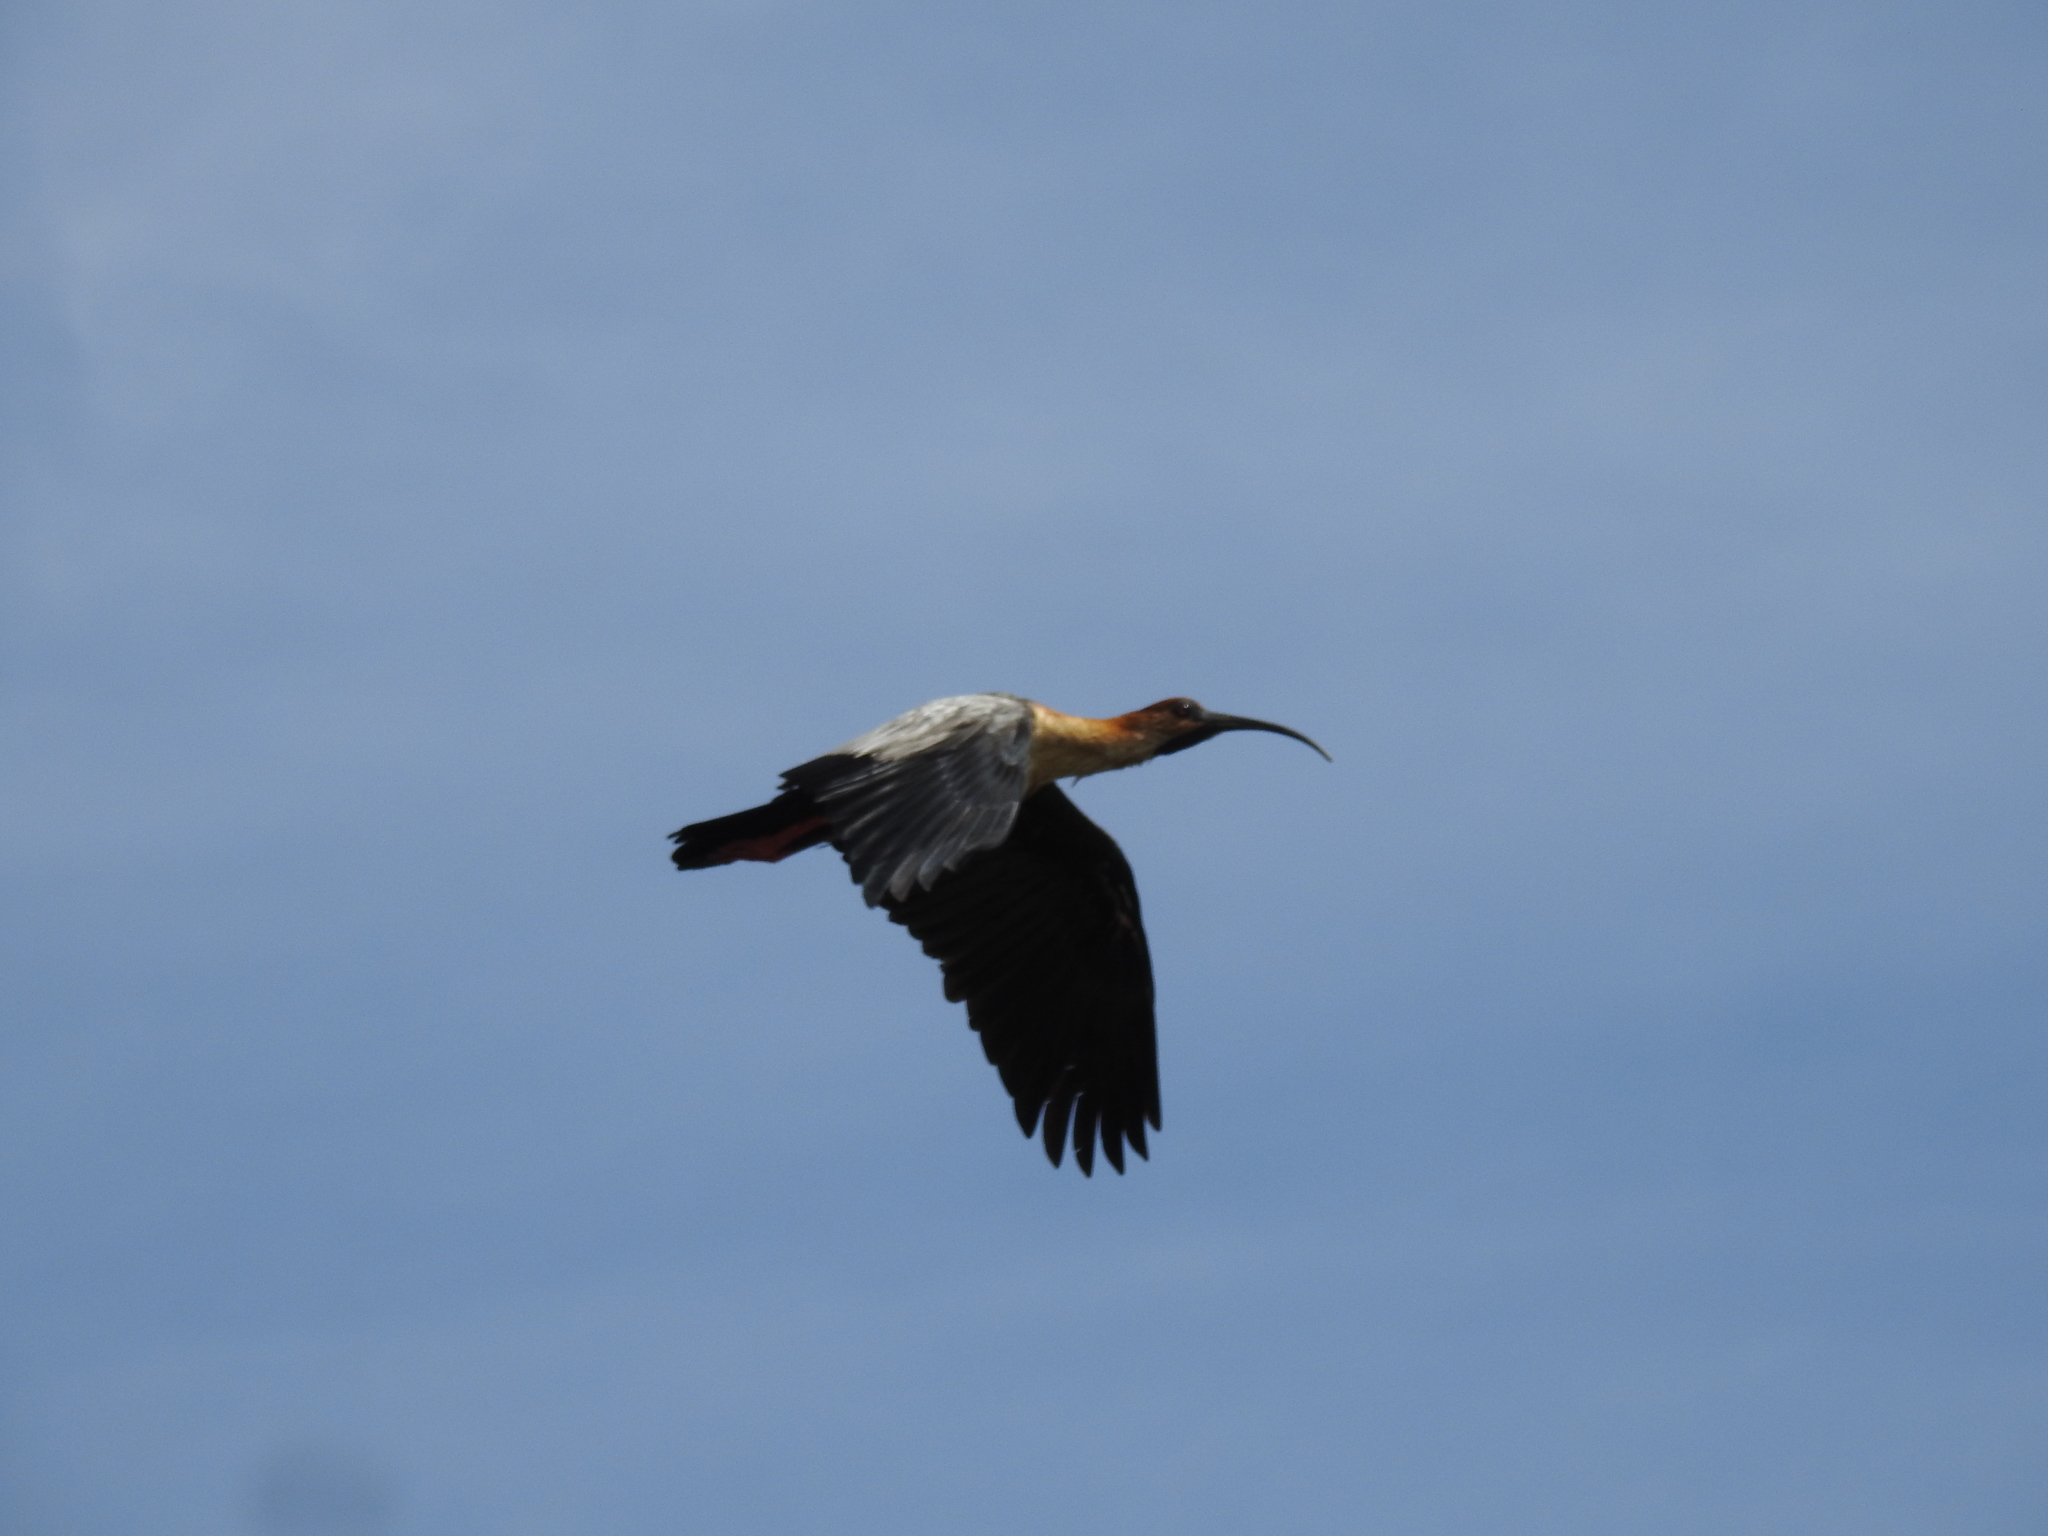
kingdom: Animalia
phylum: Chordata
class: Aves
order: Pelecaniformes
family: Threskiornithidae
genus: Theristicus
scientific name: Theristicus melanopis
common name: Black-faced ibis
